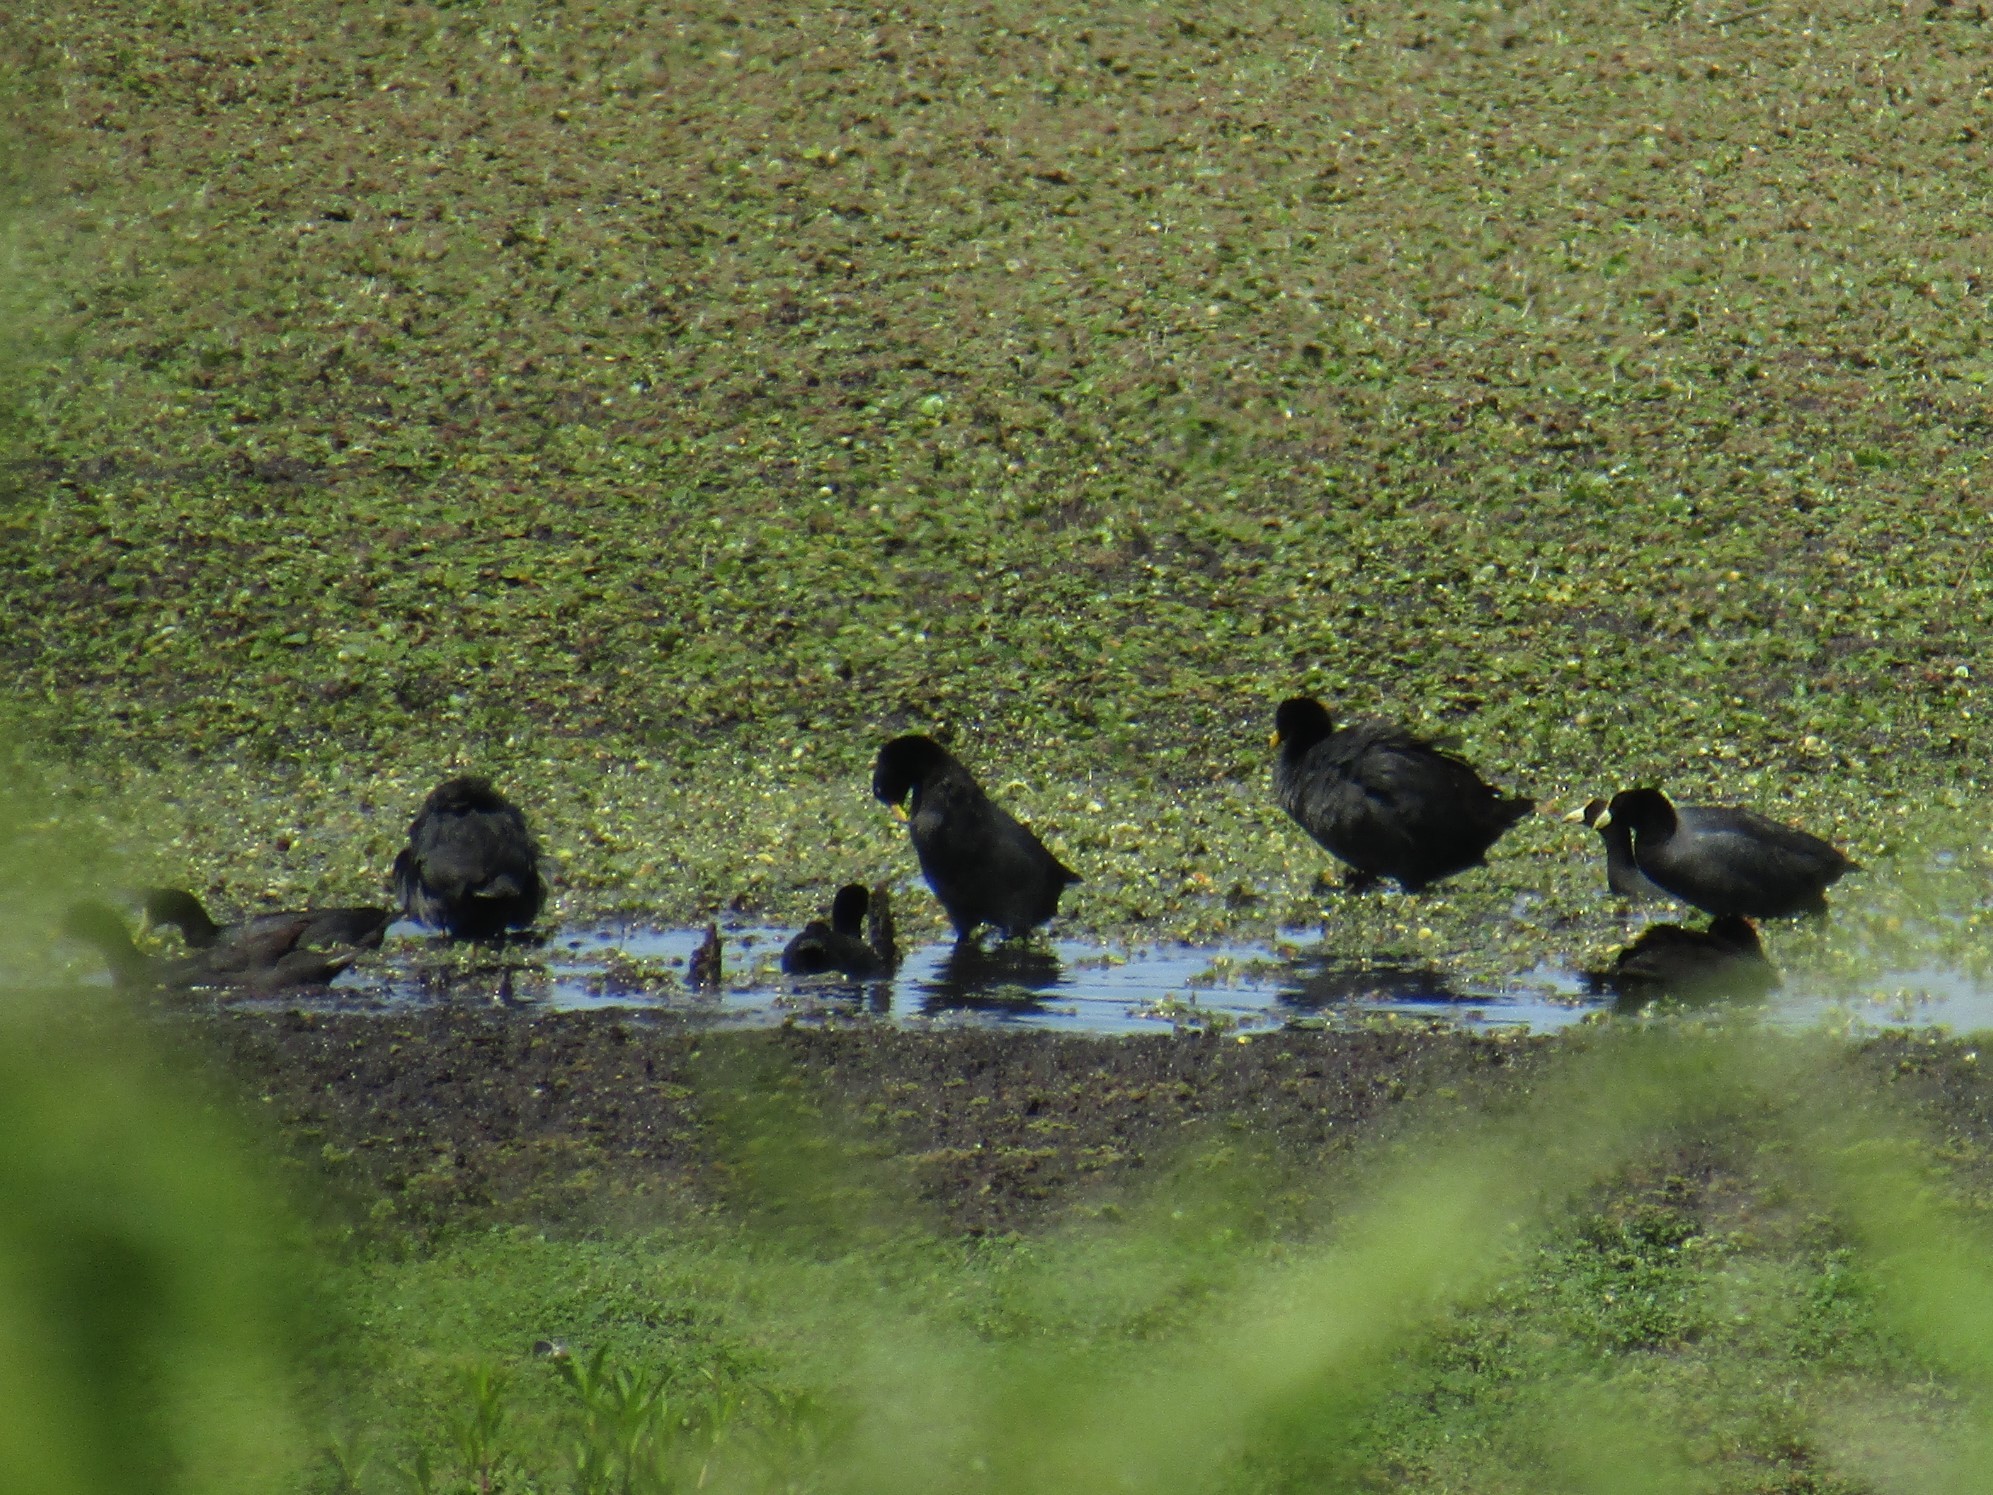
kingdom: Animalia
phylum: Chordata
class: Aves
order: Gruiformes
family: Rallidae
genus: Fulica
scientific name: Fulica armillata
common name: Red-gartered coot
